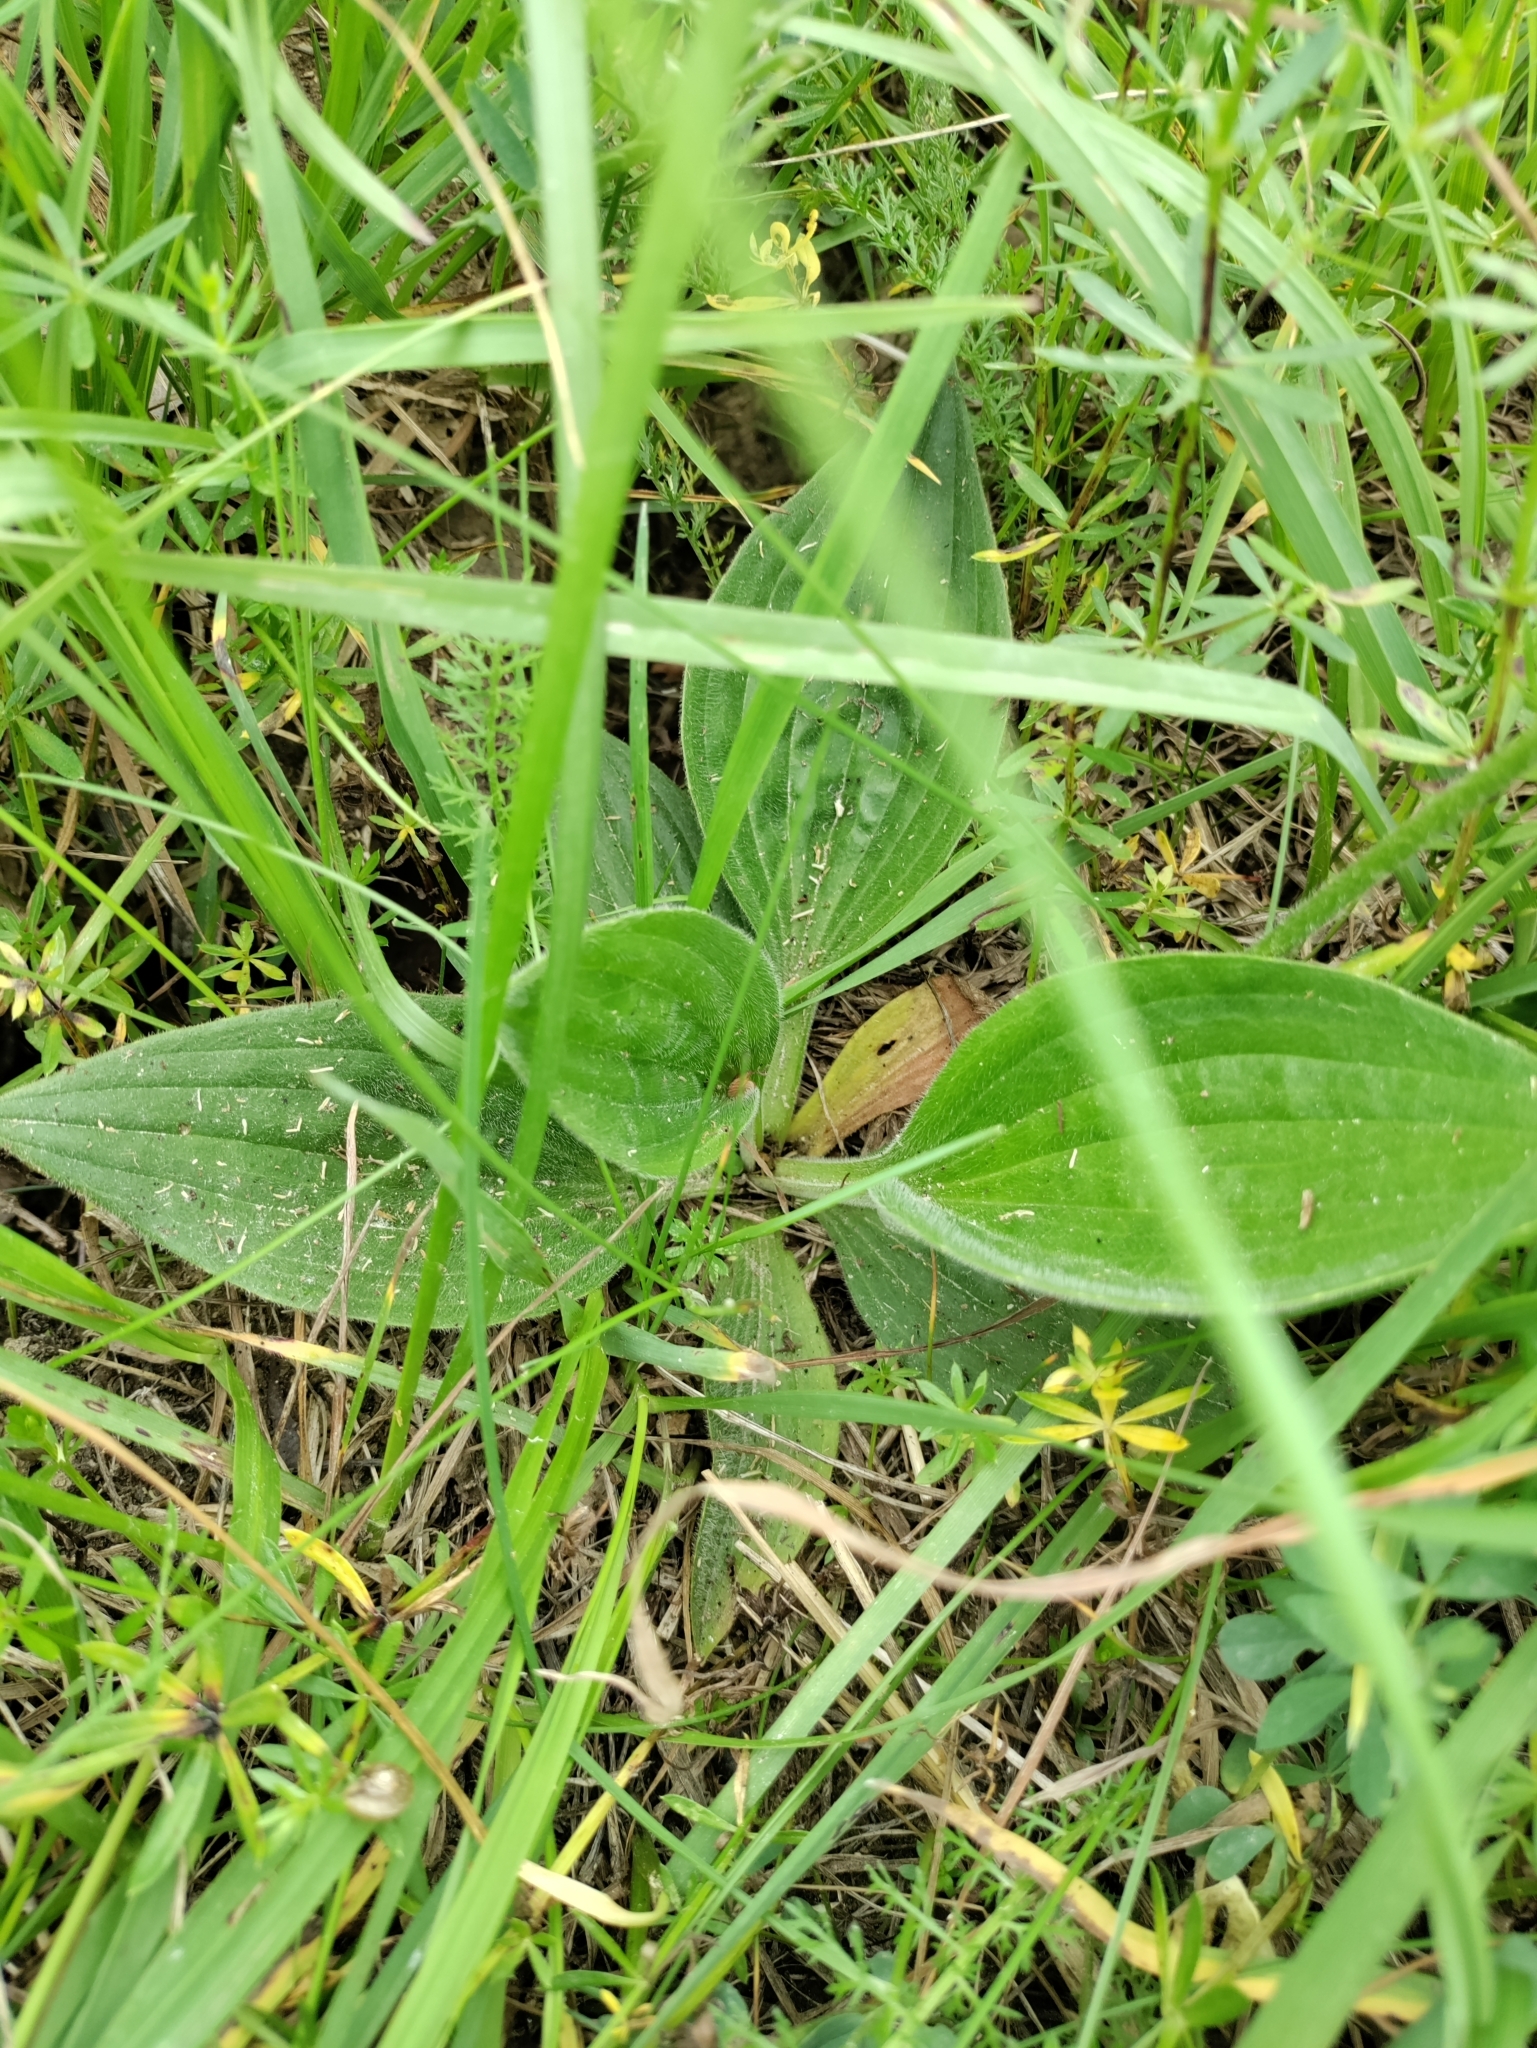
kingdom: Plantae
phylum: Tracheophyta
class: Magnoliopsida
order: Lamiales
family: Plantaginaceae
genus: Plantago
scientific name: Plantago media
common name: Hoary plantain
